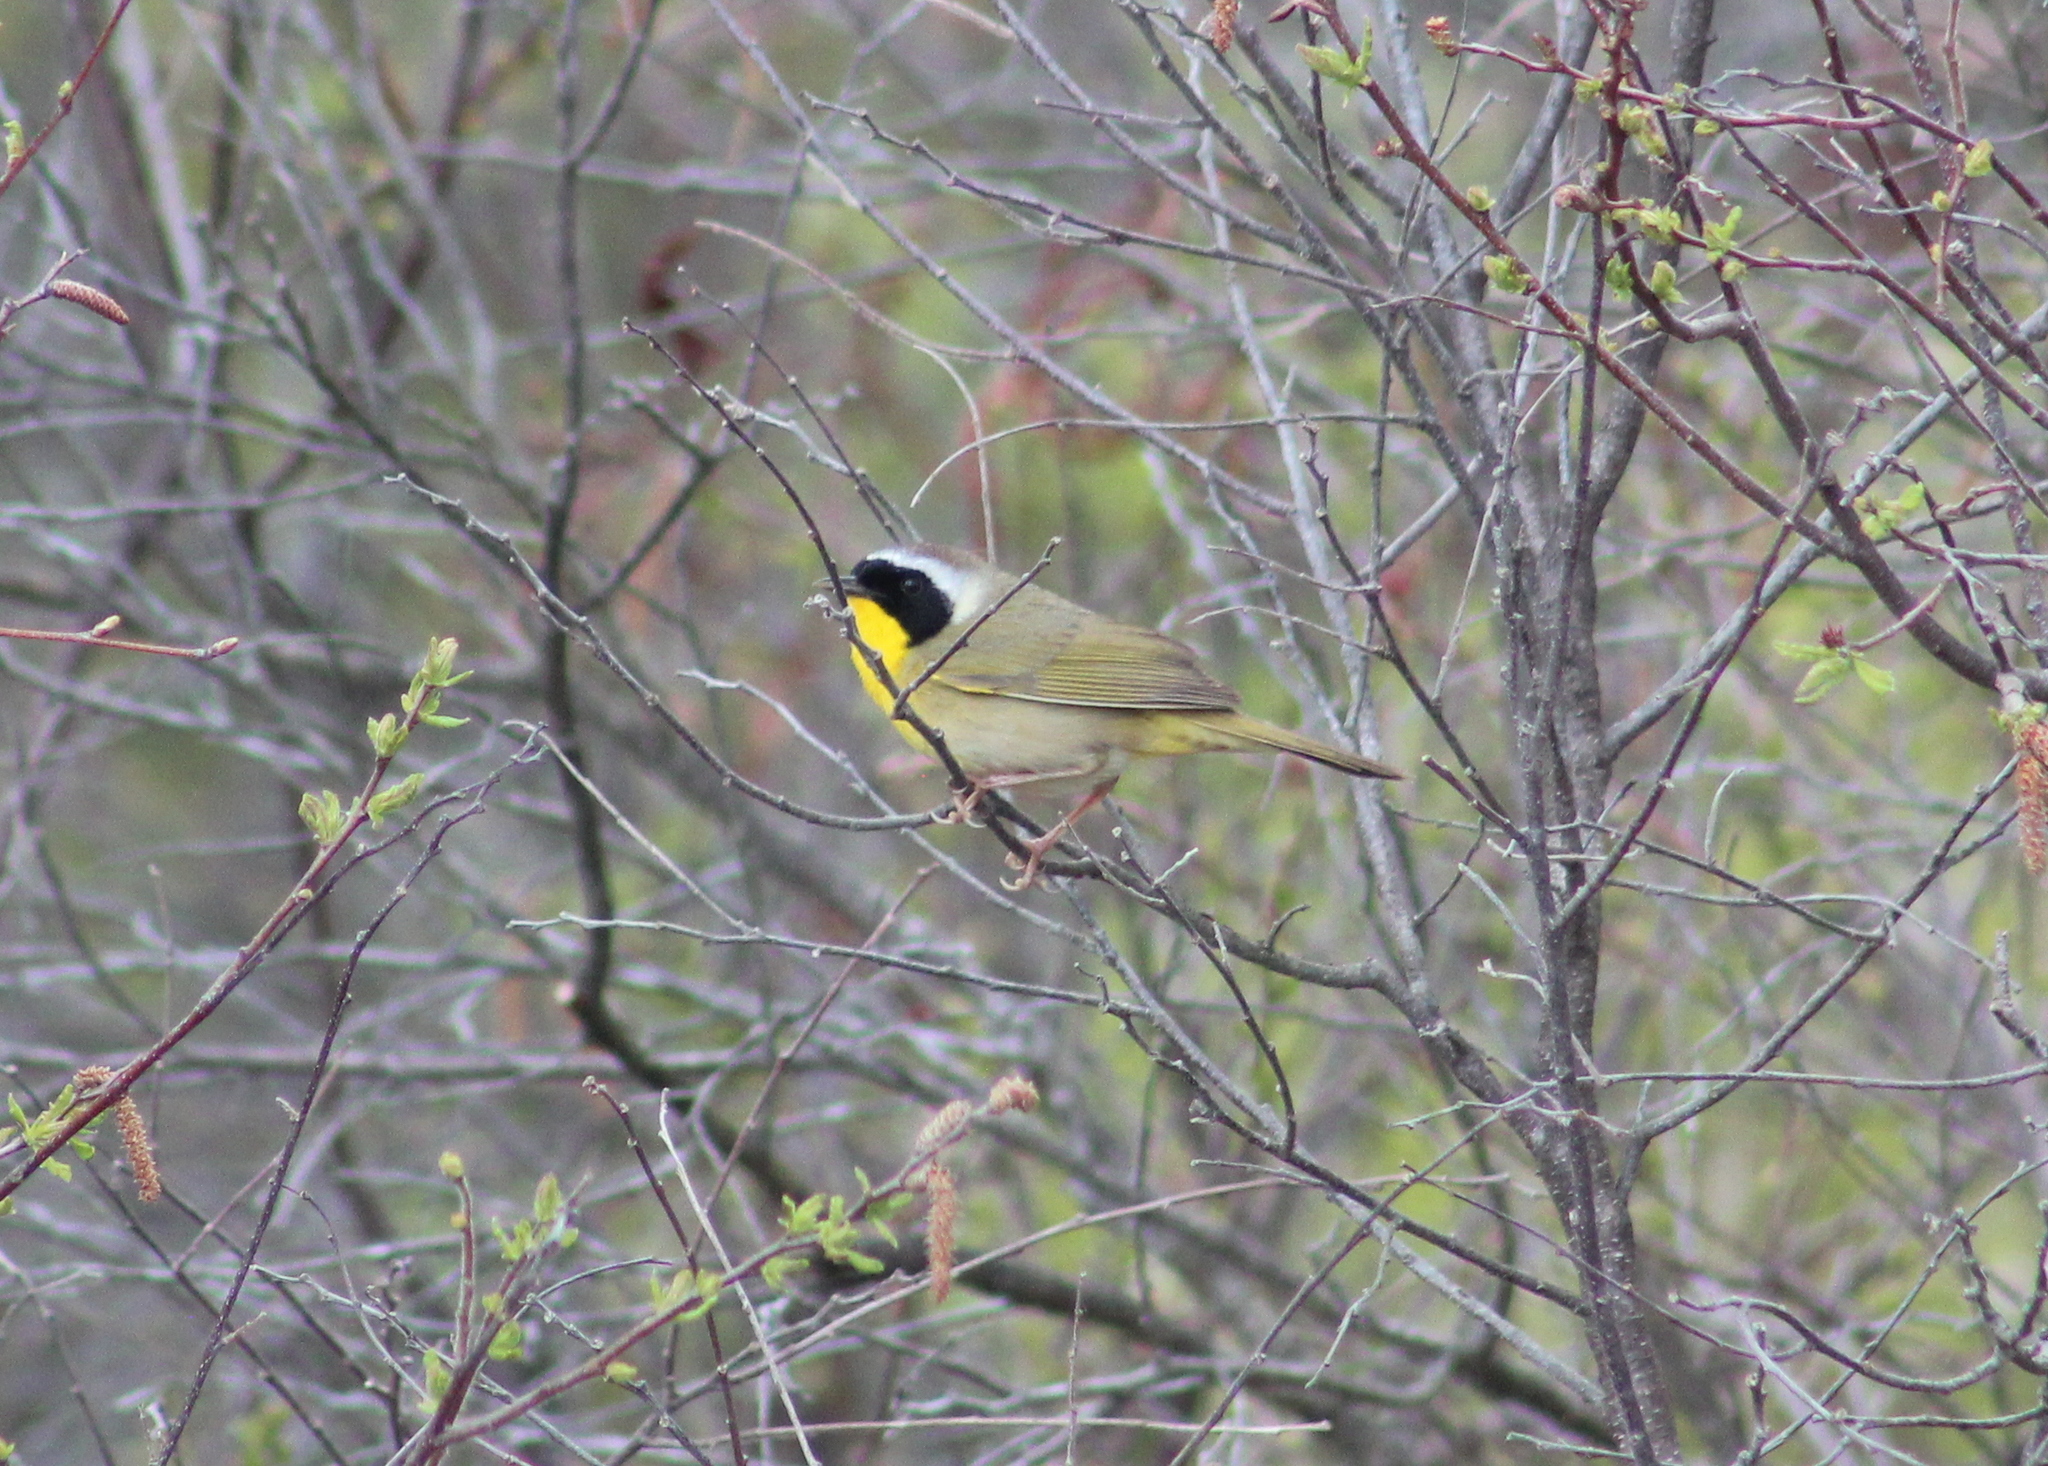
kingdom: Animalia
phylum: Chordata
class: Aves
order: Passeriformes
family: Parulidae
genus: Geothlypis
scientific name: Geothlypis trichas
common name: Common yellowthroat
